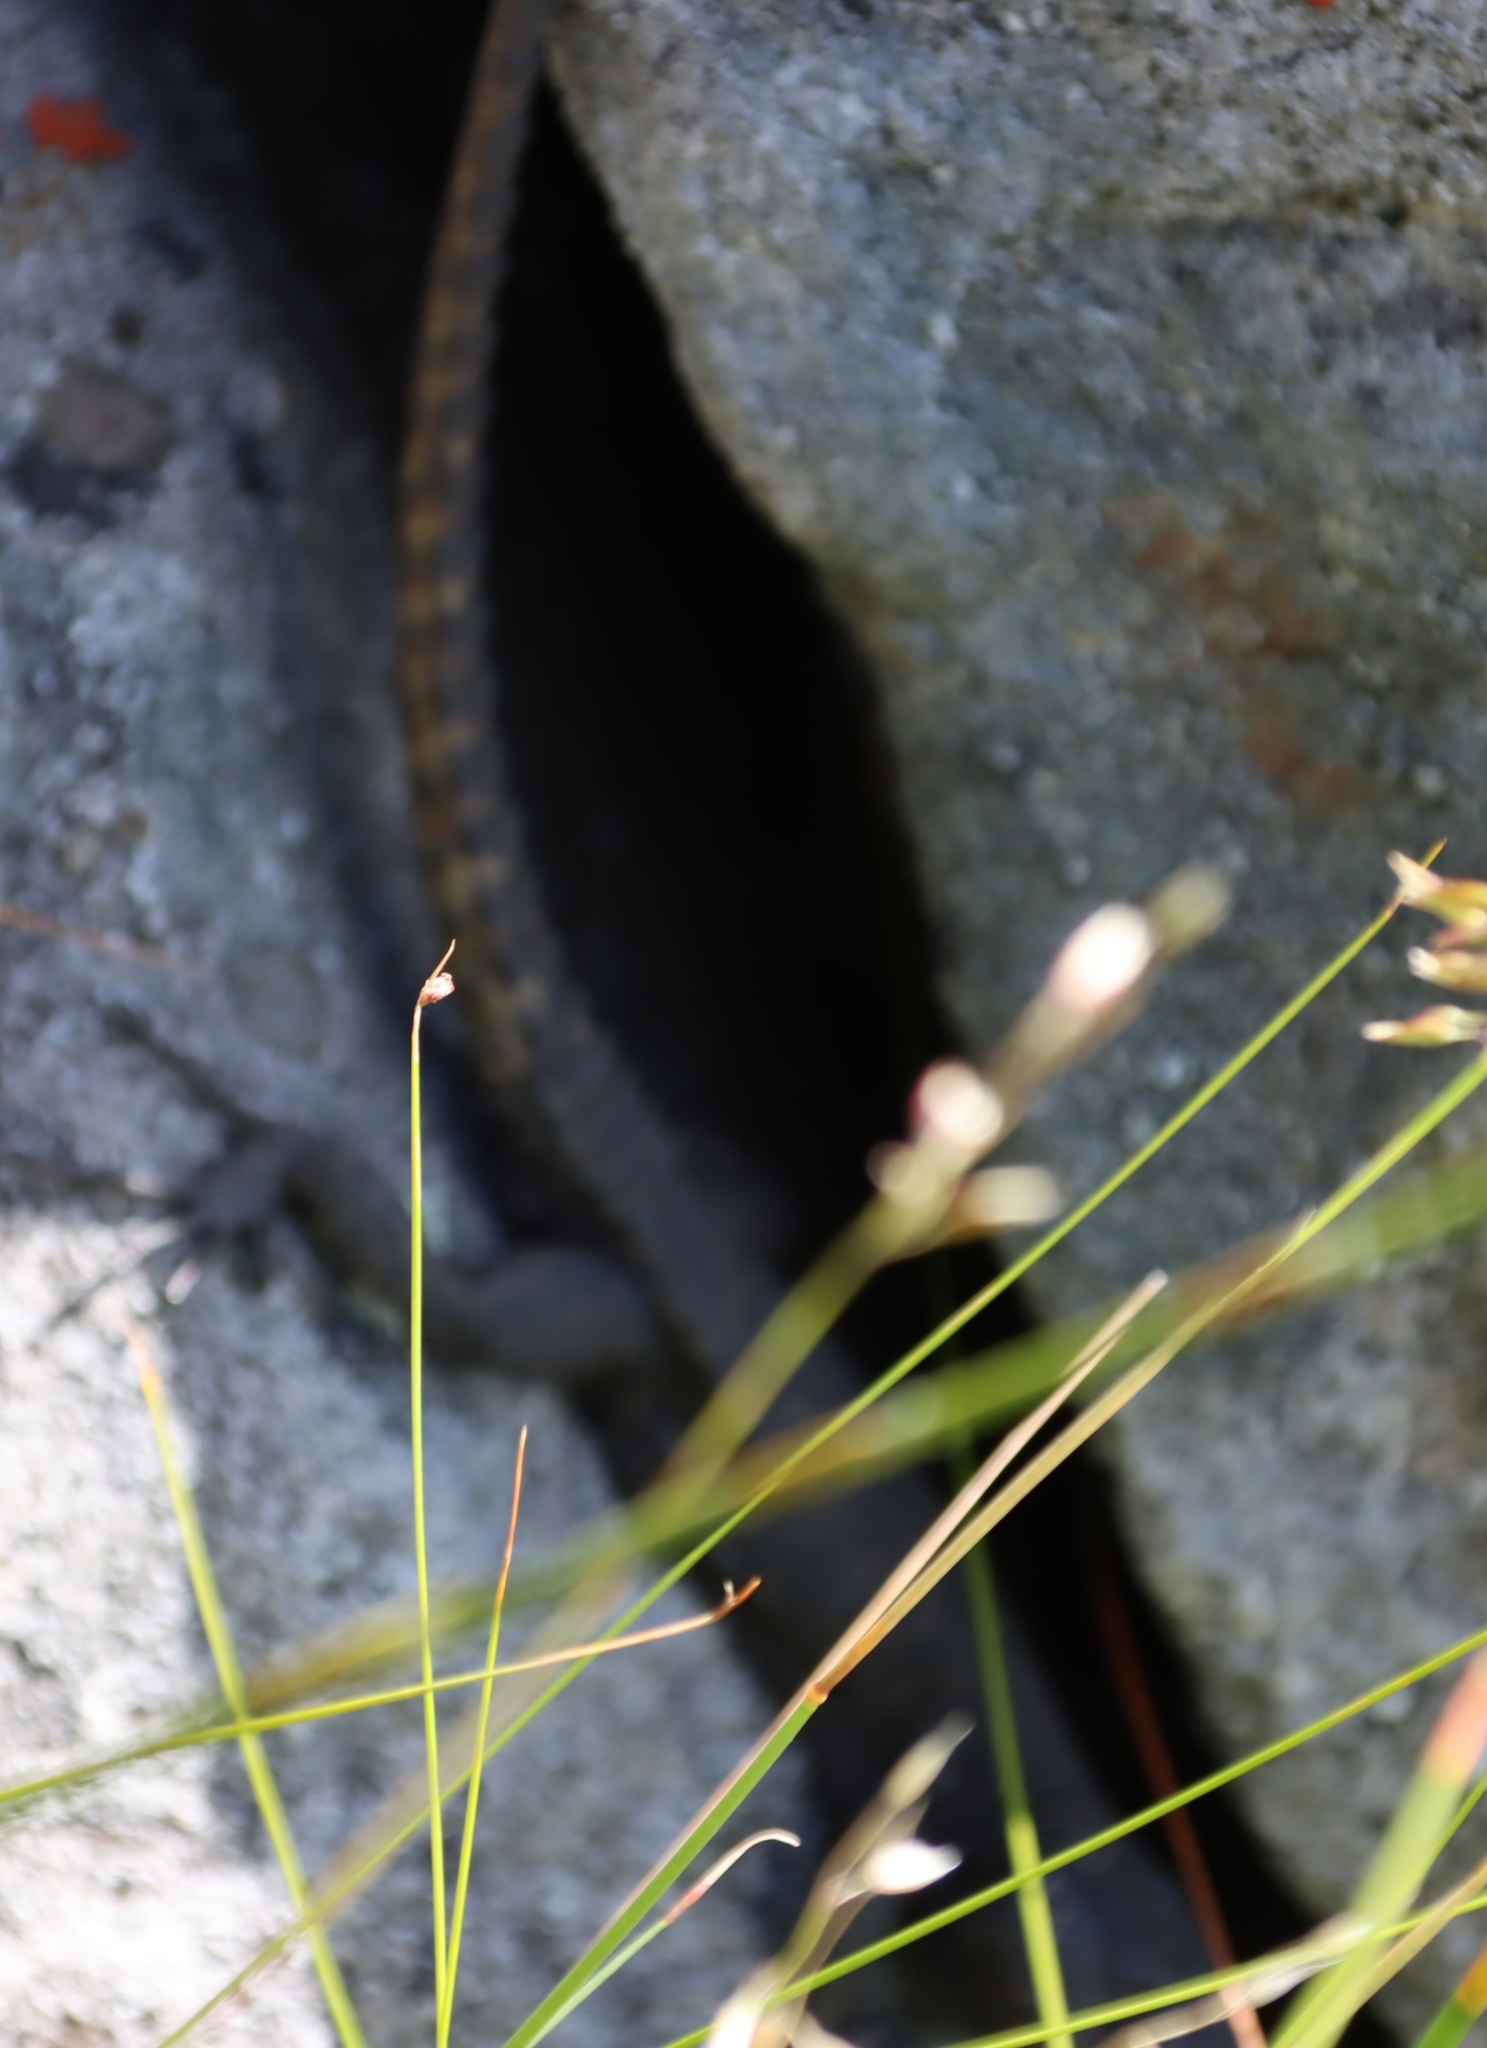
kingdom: Animalia
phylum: Chordata
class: Squamata
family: Cordylidae
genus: Hemicordylus
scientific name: Hemicordylus capensis
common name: Graceful crag lizard
